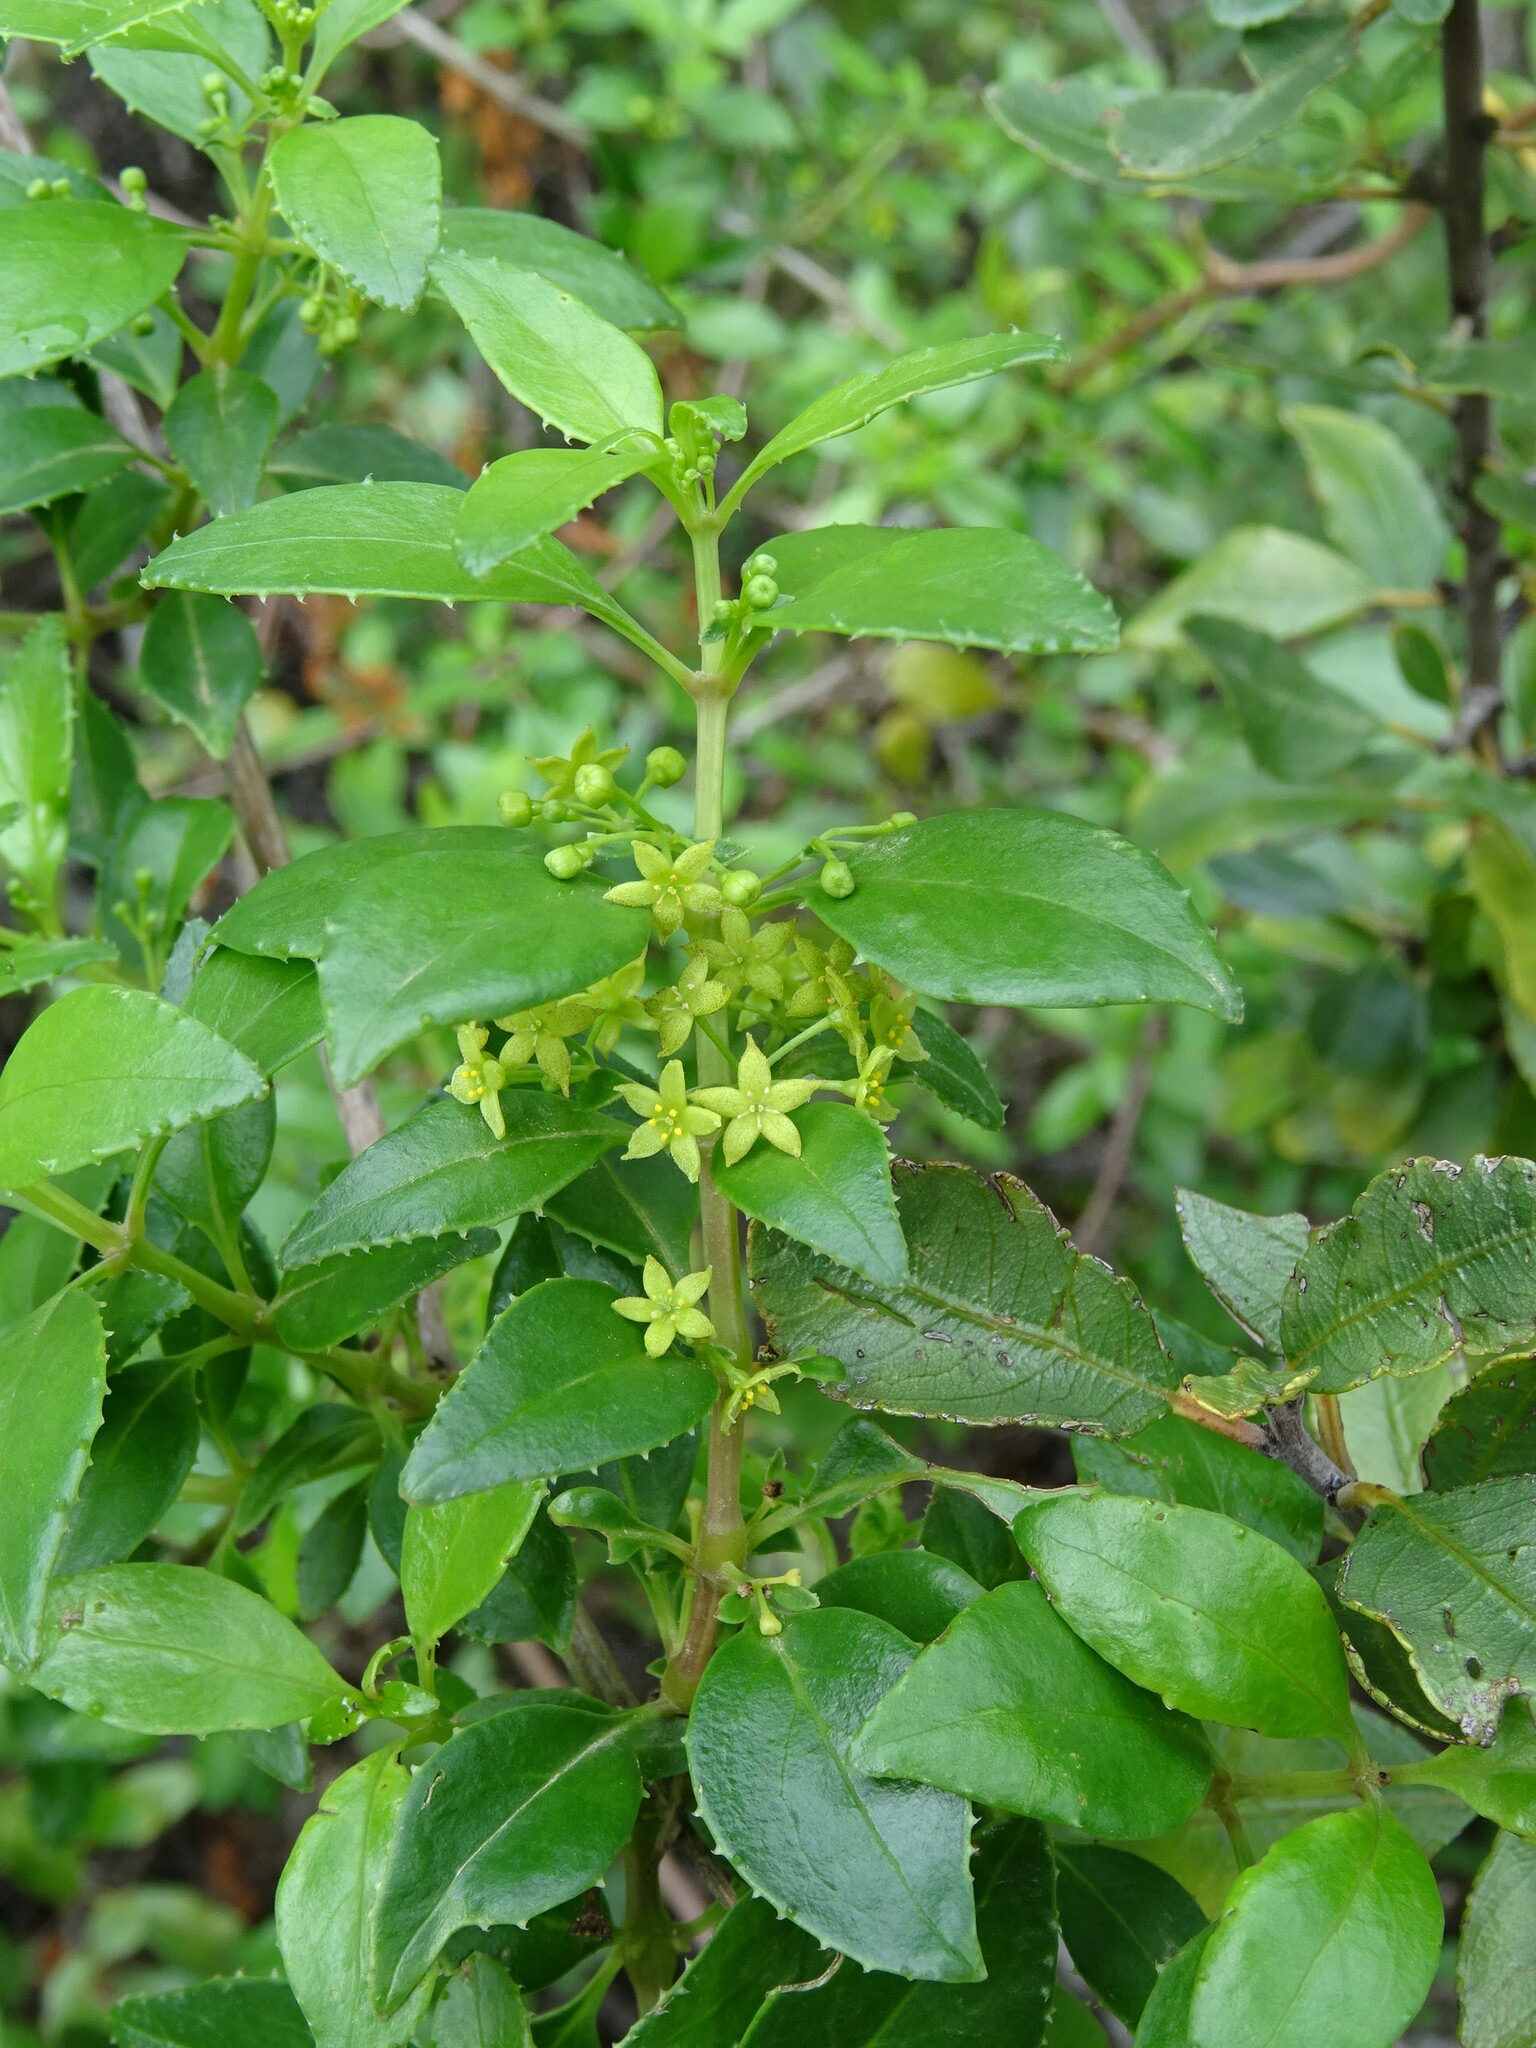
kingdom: Plantae
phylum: Tracheophyta
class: Magnoliopsida
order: Gentianales
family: Rubiaceae
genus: Rubia
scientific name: Rubia fruticosa
